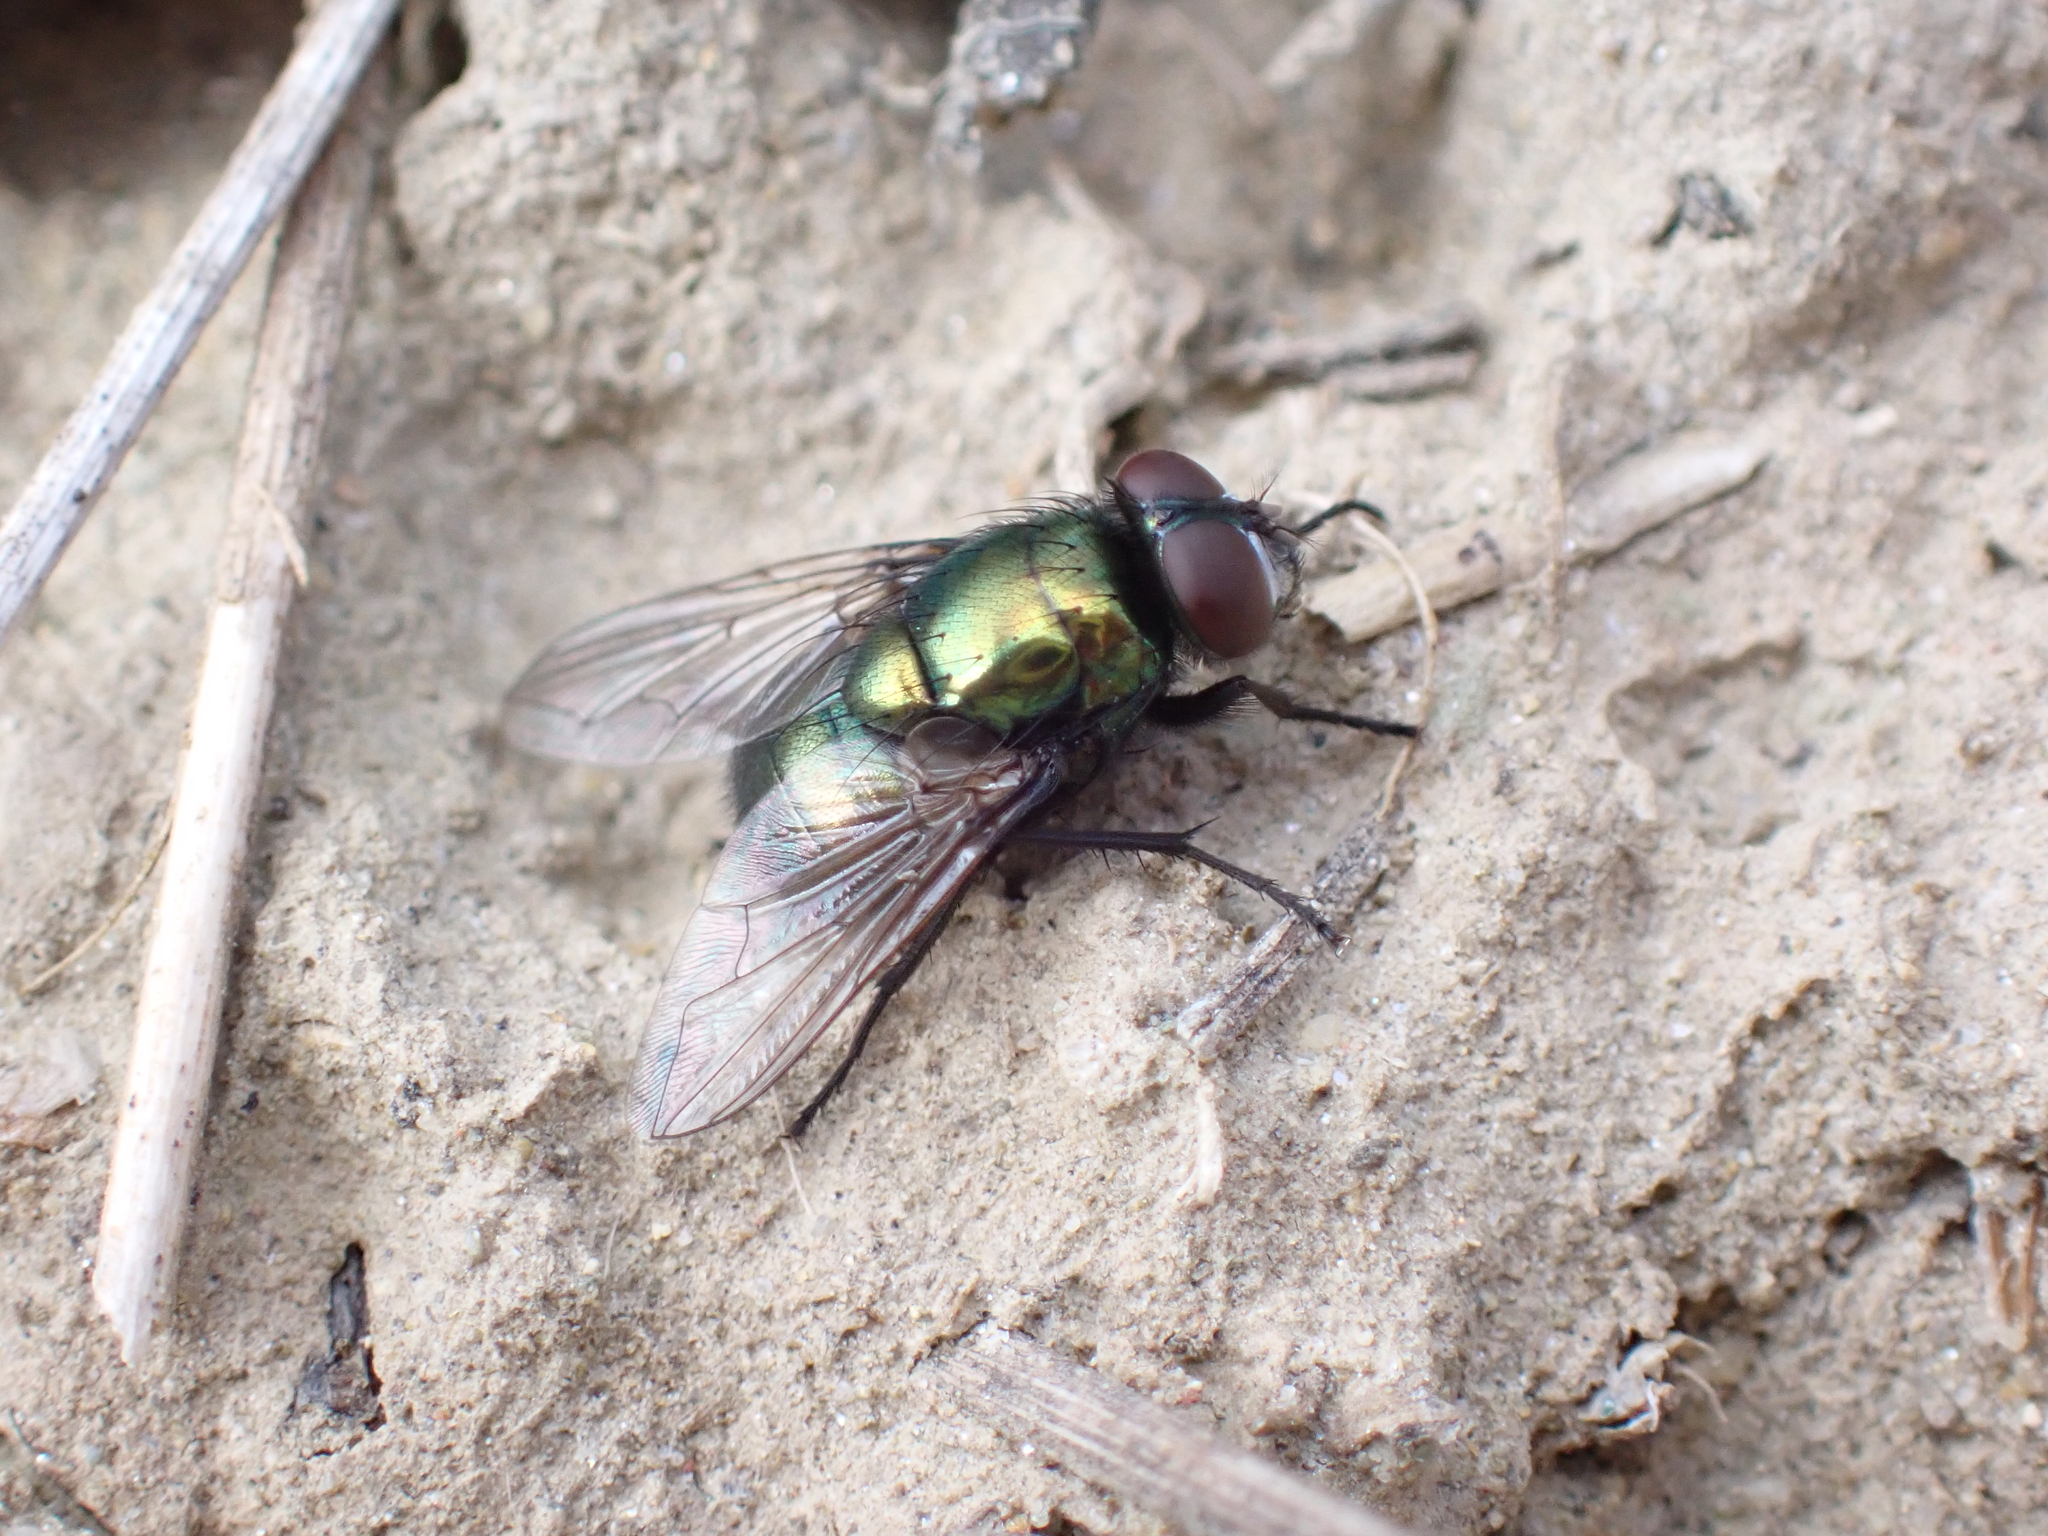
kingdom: Animalia
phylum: Arthropoda
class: Insecta
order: Diptera
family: Muscidae
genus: Neomyia
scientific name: Neomyia cornicina
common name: House fly
